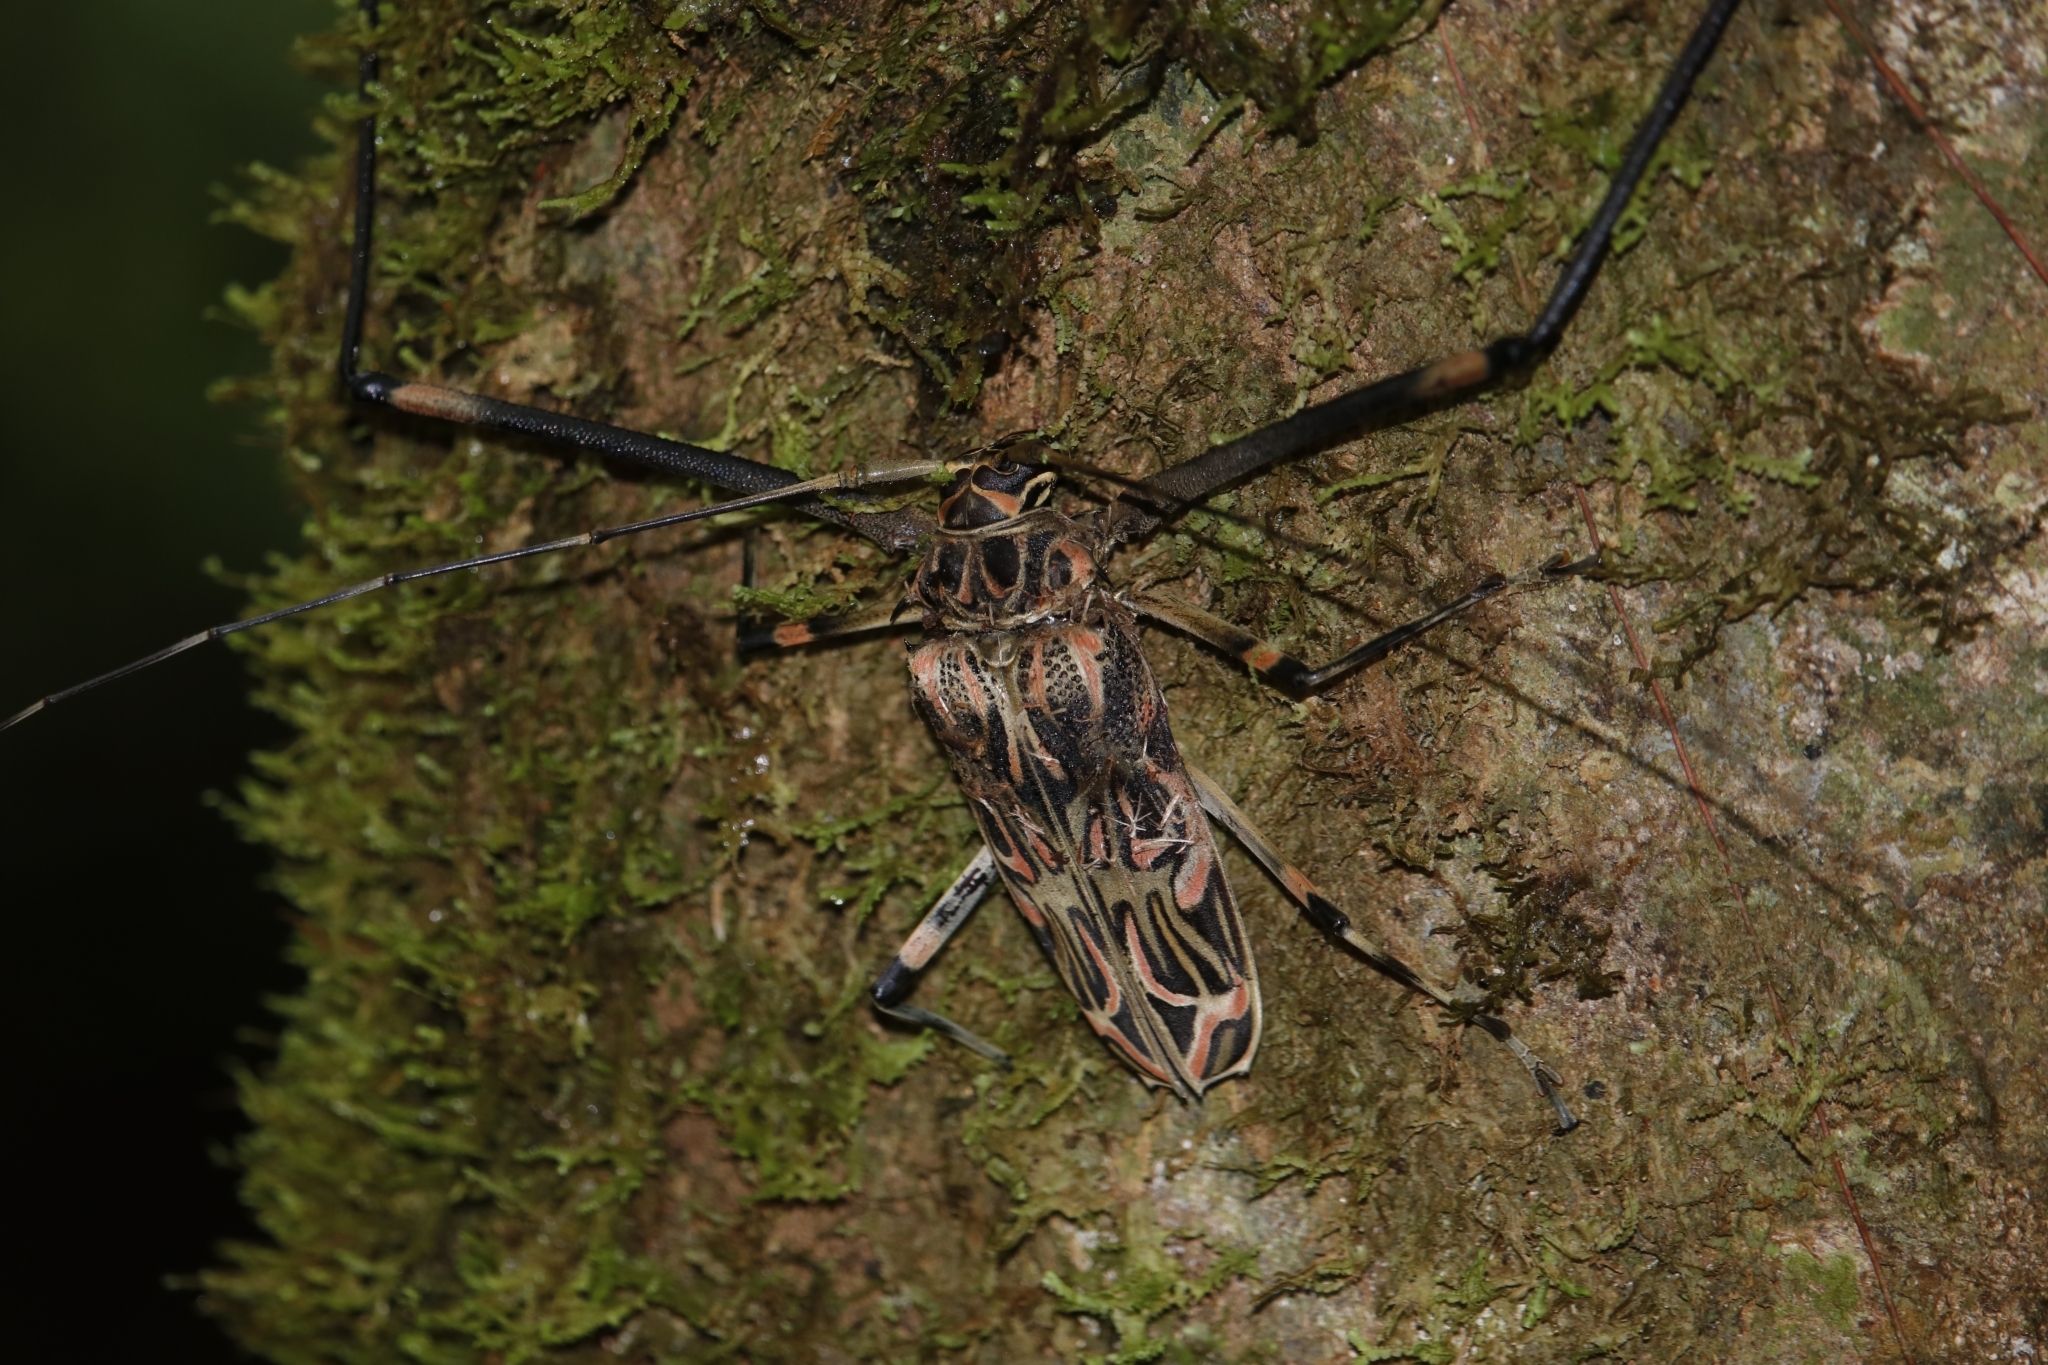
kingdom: Animalia
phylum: Arthropoda
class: Insecta
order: Coleoptera
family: Cerambycidae
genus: Acrocinus
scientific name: Acrocinus longimanus
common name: Arlequin
